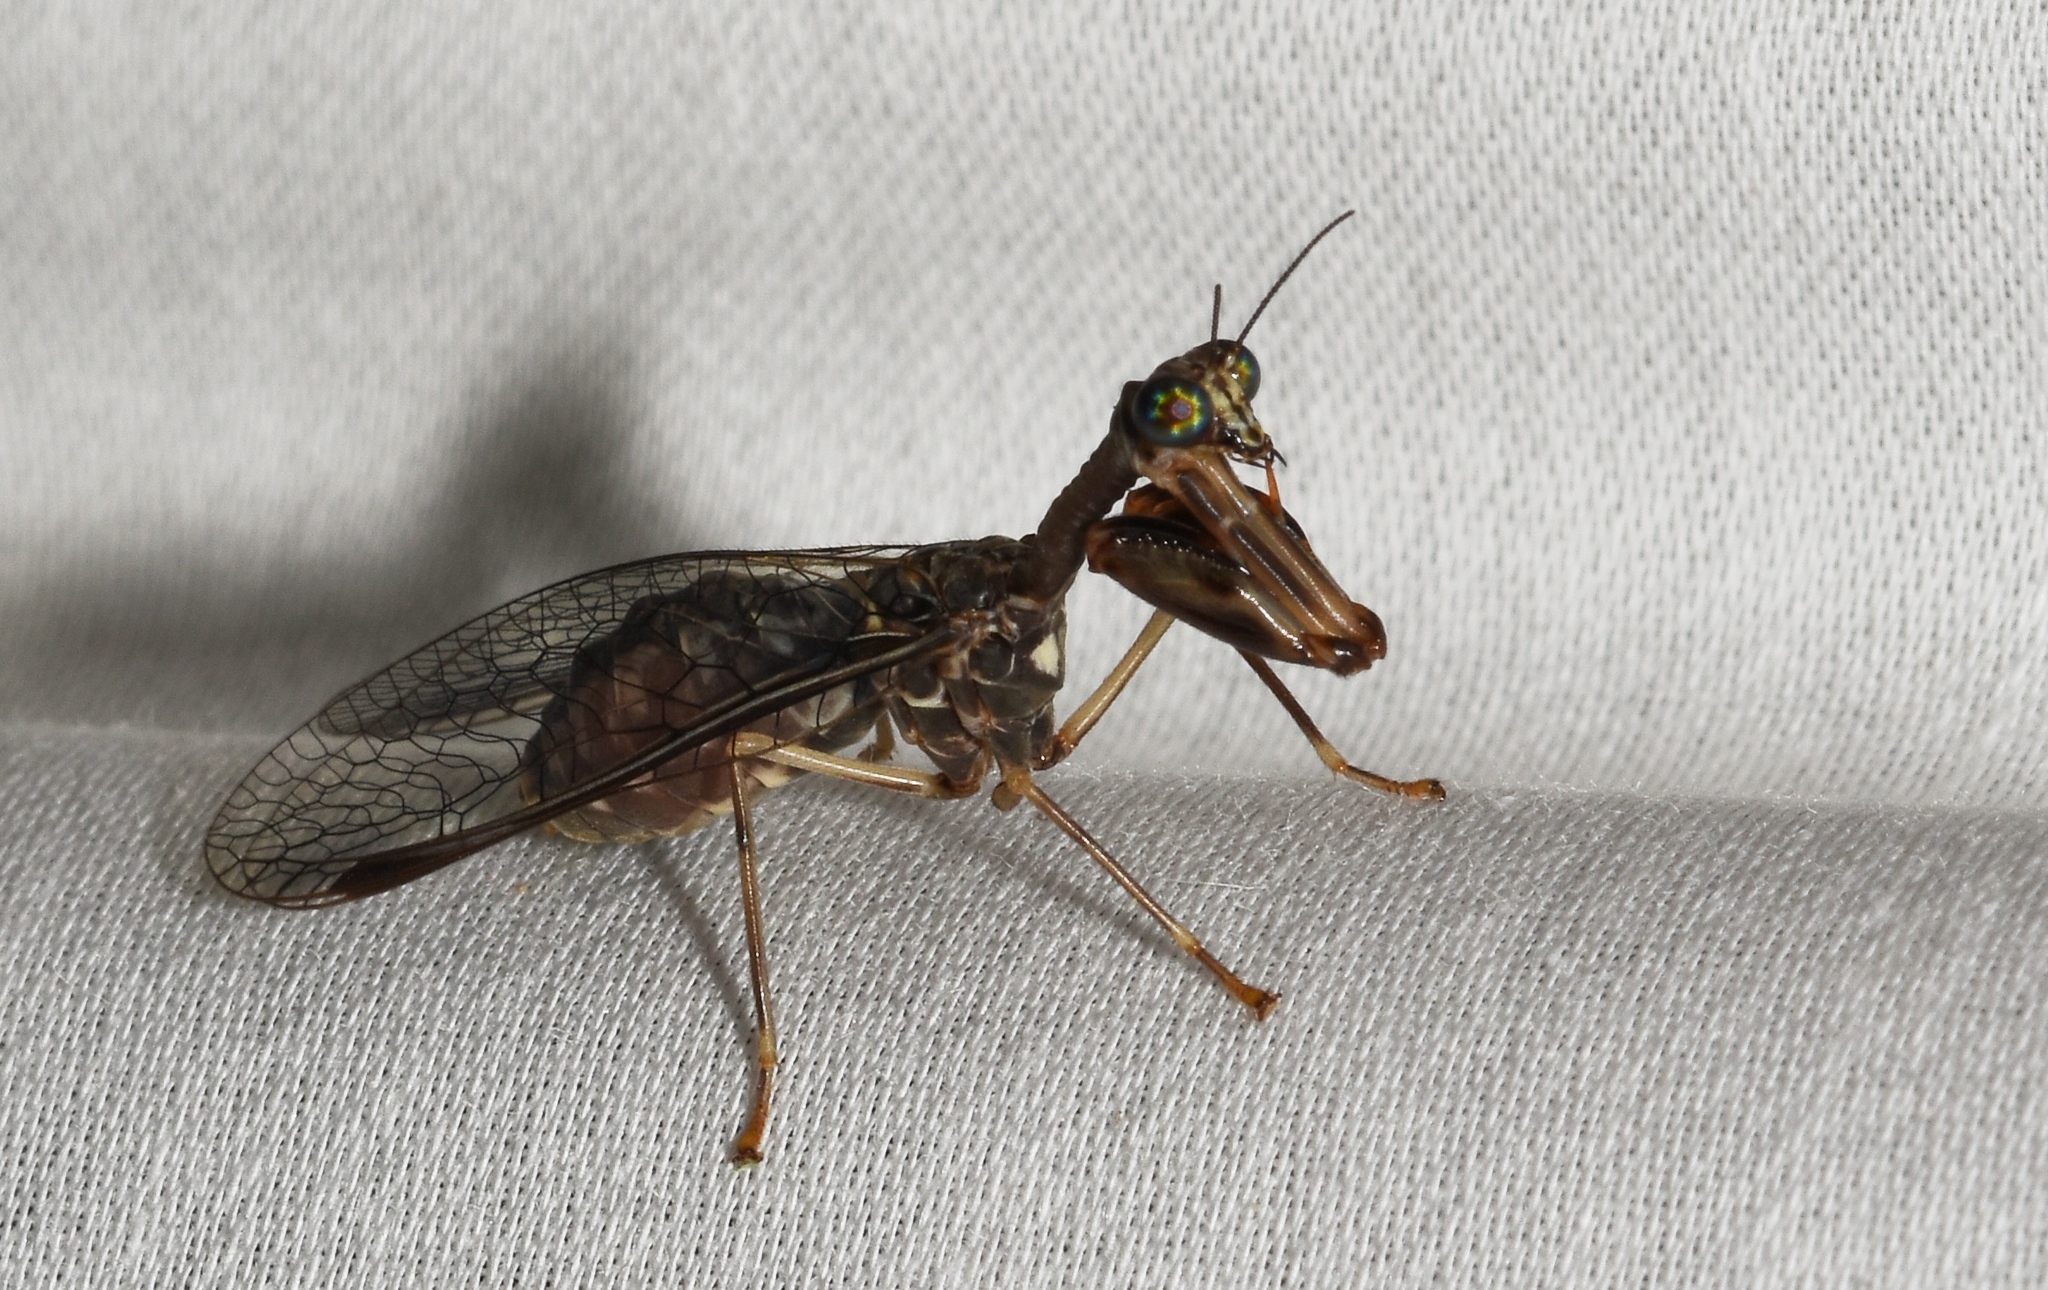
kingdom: Animalia
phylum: Arthropoda
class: Insecta
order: Neuroptera
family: Mantispidae
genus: Dicromantispa
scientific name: Dicromantispa sayi
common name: Say's mantidfly
